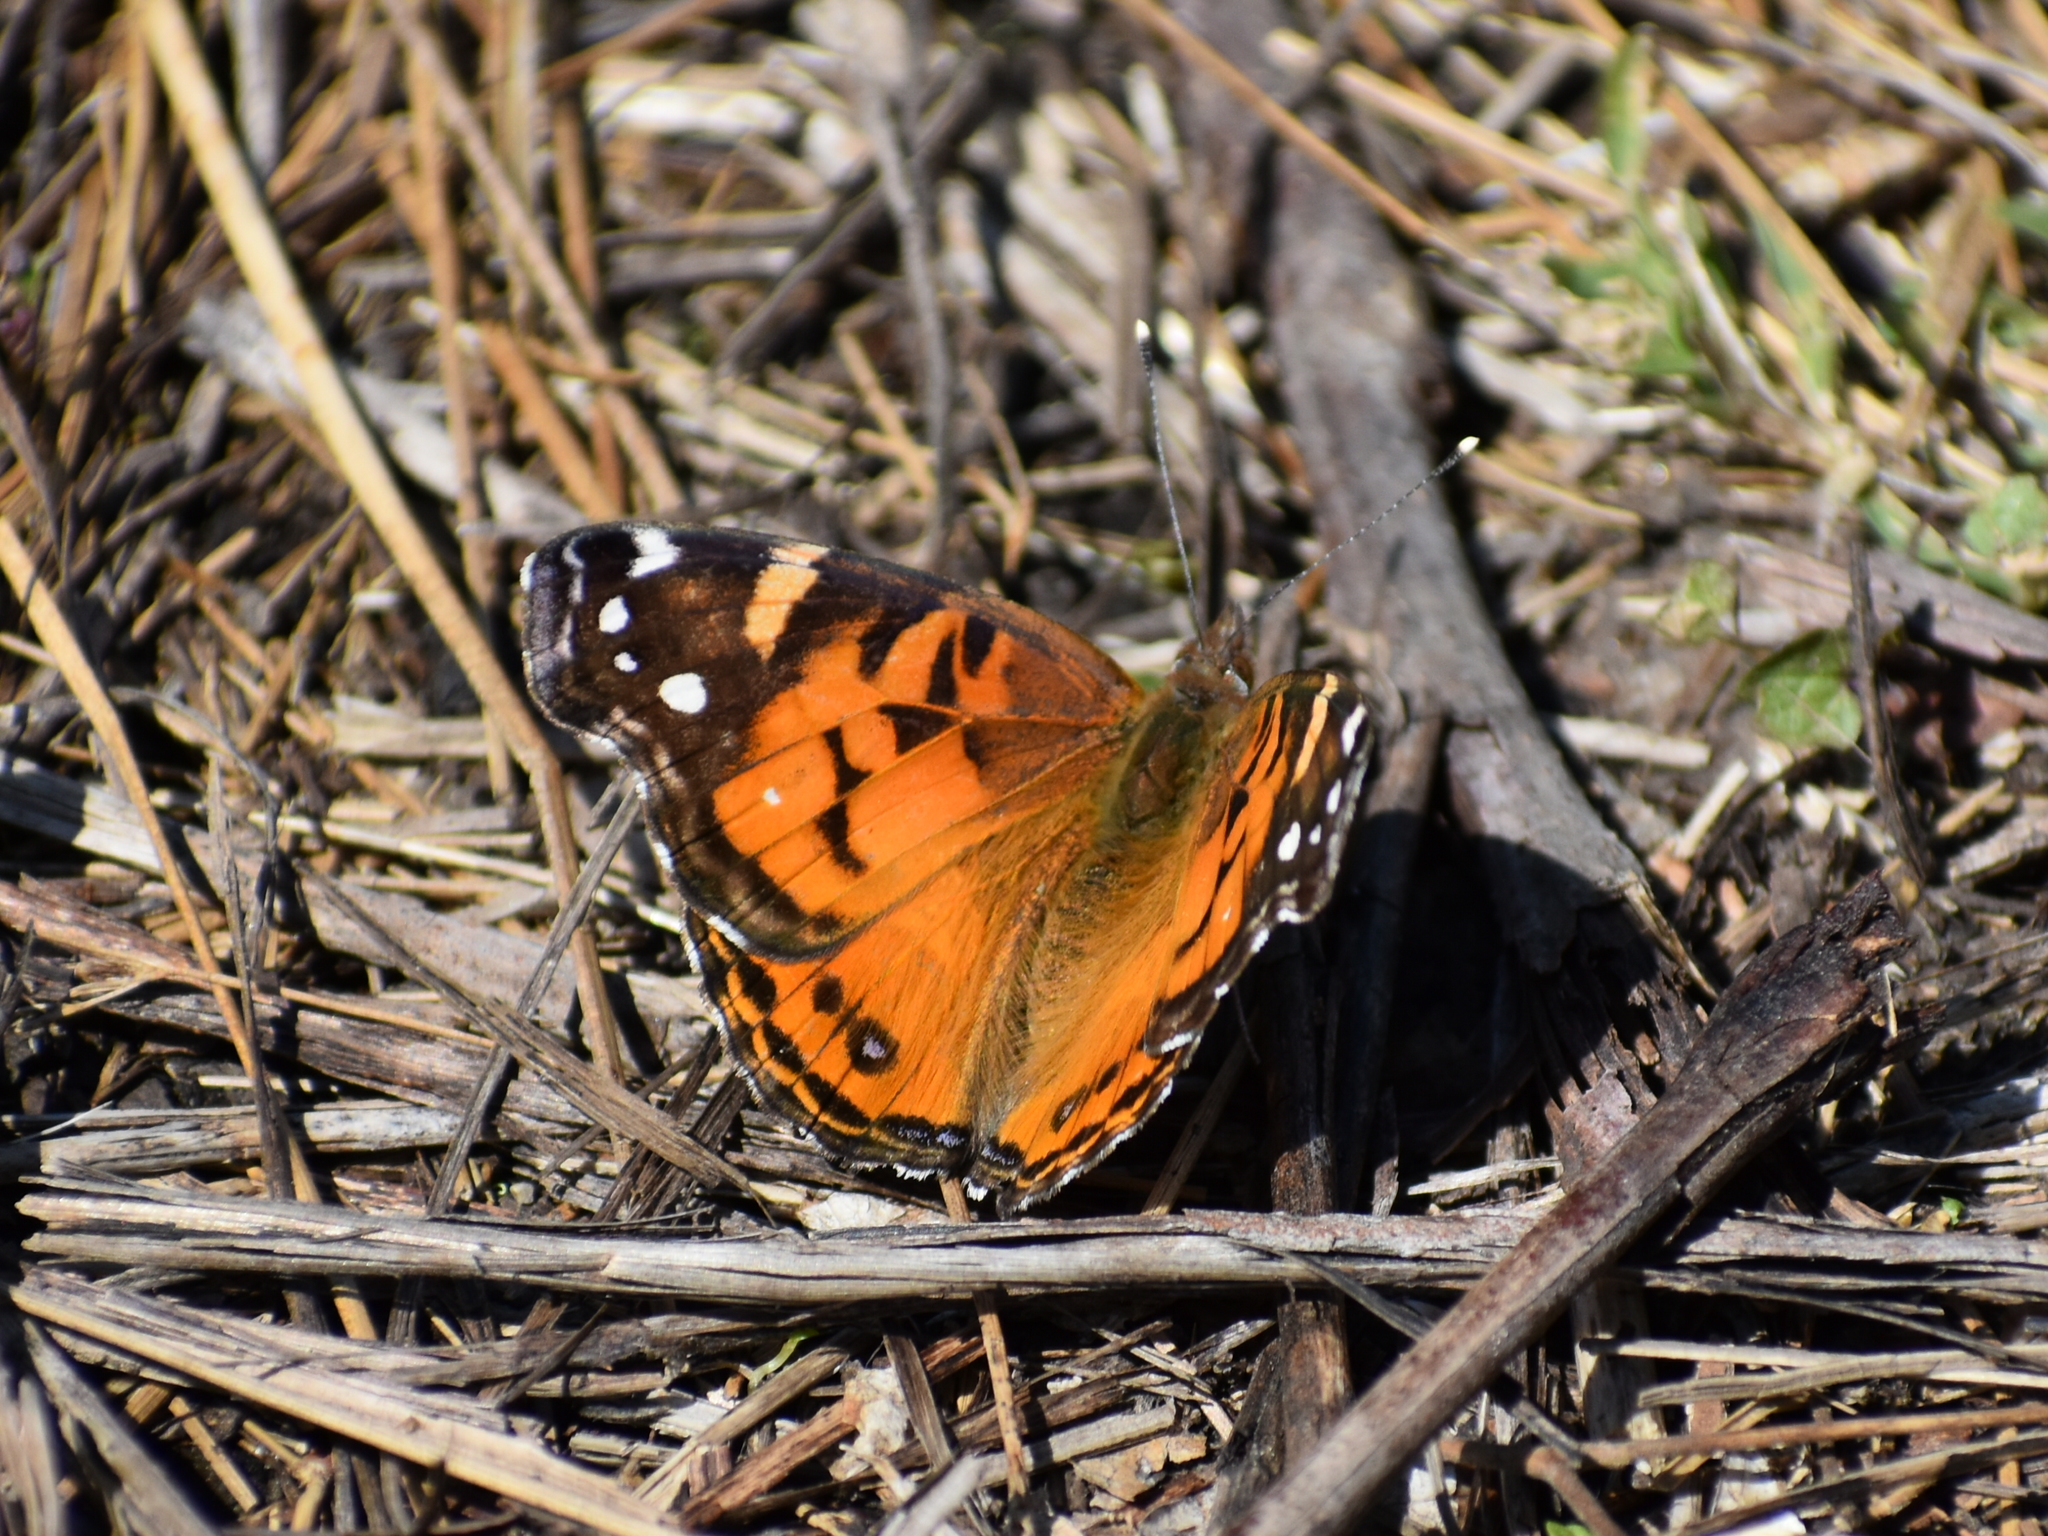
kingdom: Animalia
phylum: Arthropoda
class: Insecta
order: Lepidoptera
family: Nymphalidae
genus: Vanessa
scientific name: Vanessa virginiensis
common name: American lady
